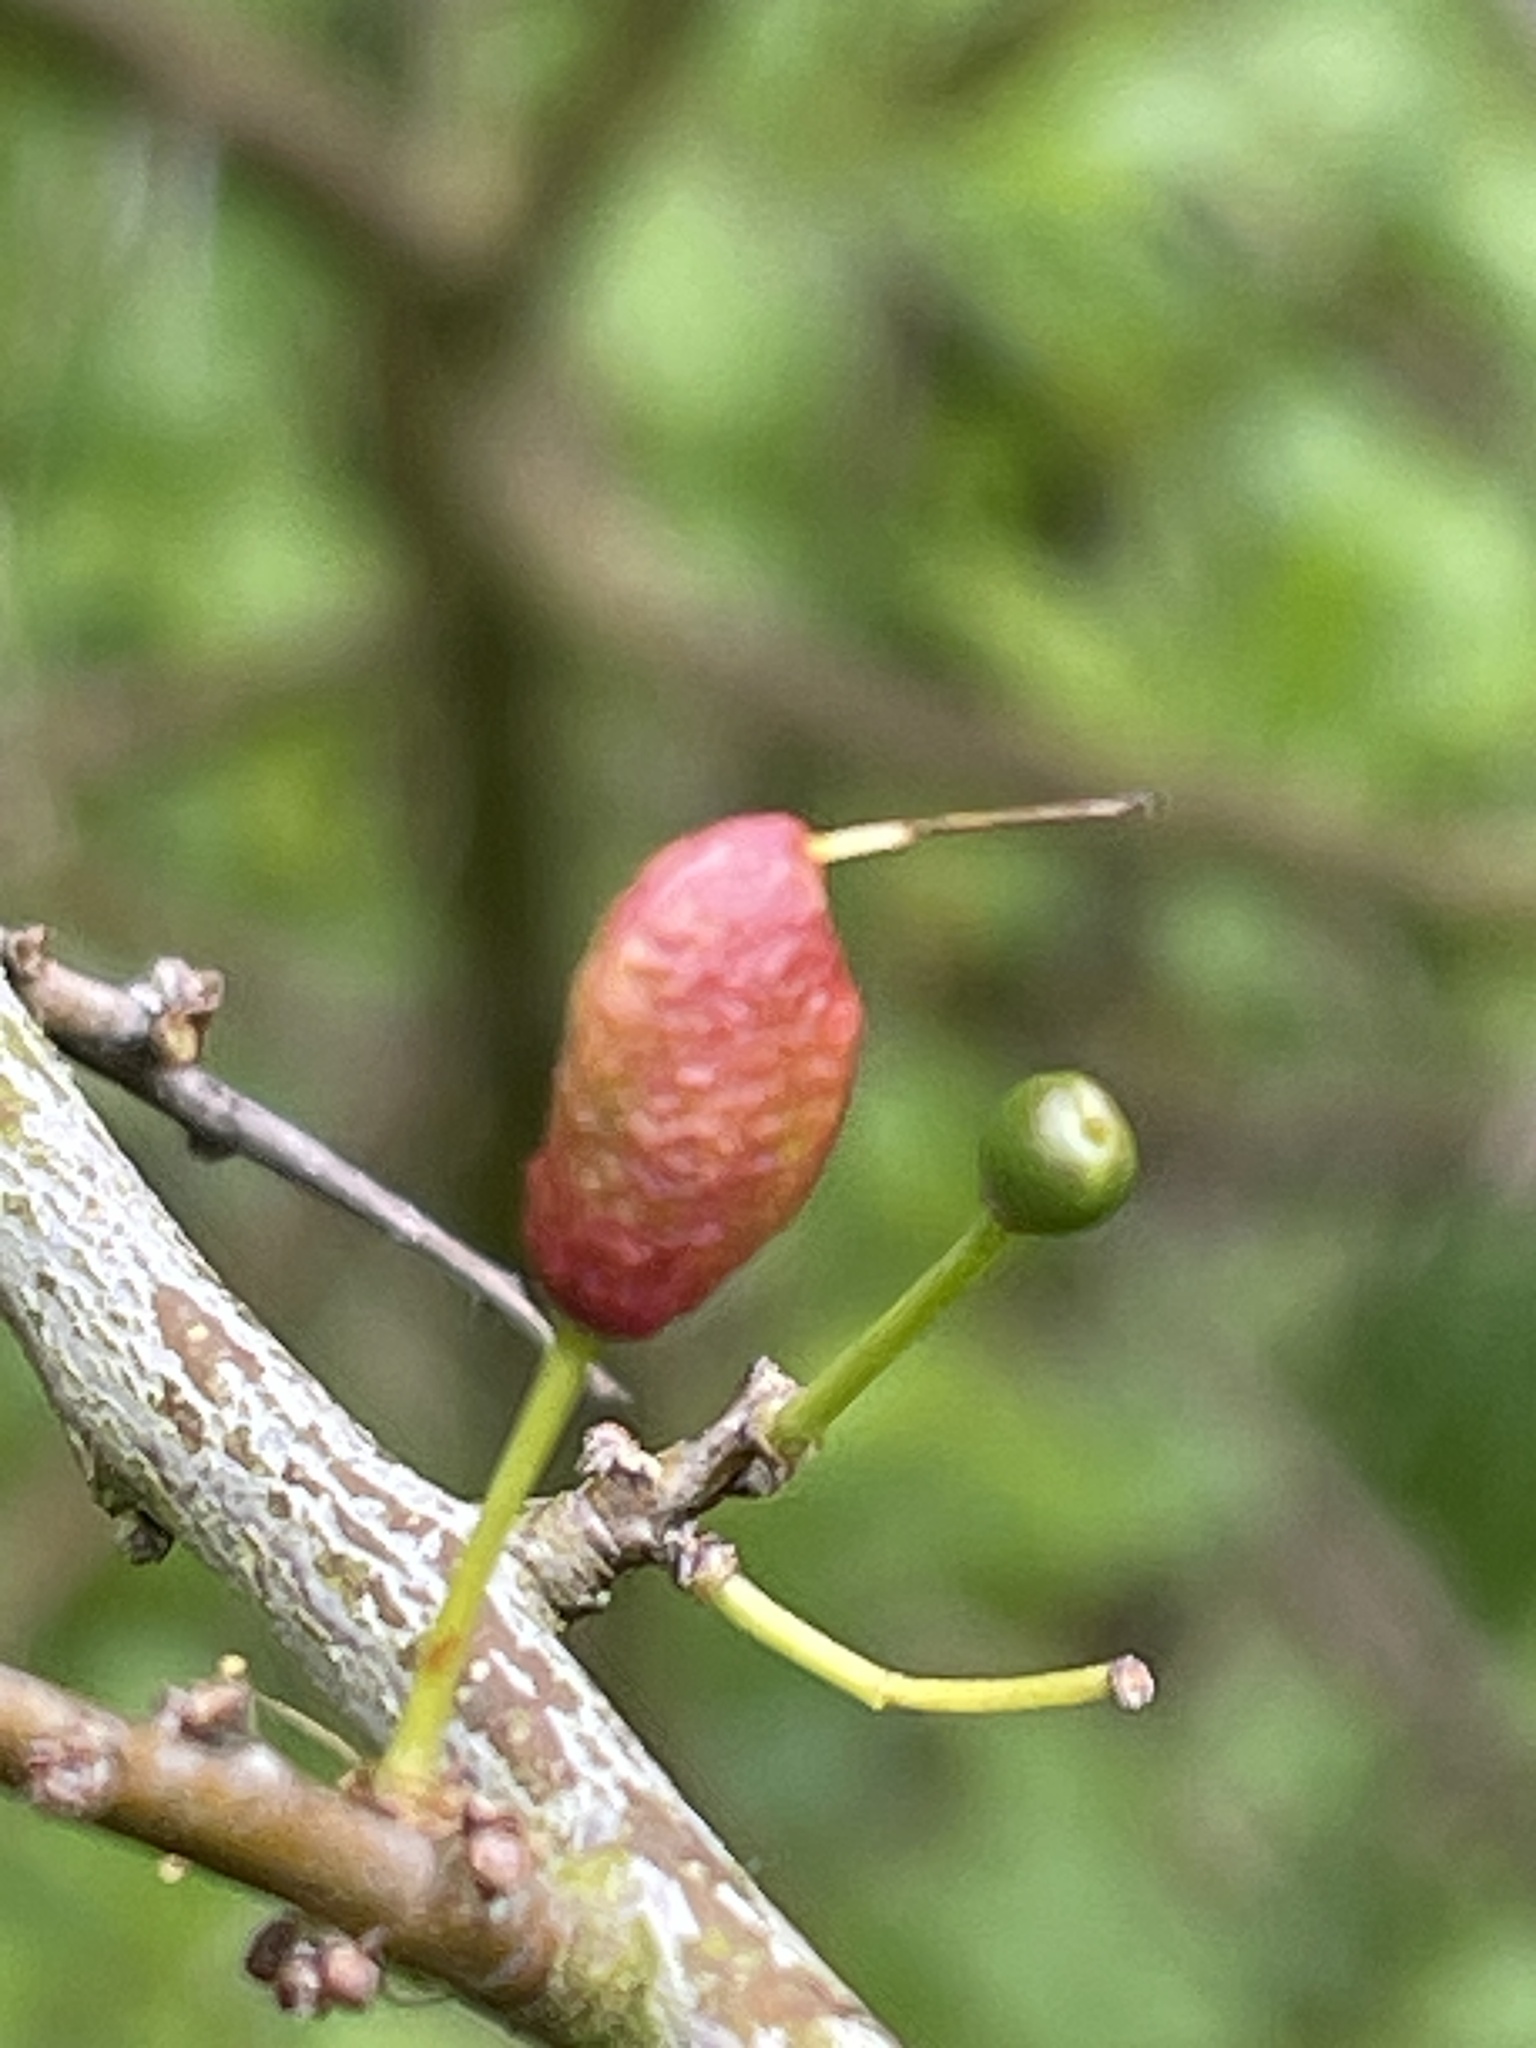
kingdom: Fungi
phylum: Ascomycota
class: Taphrinomycetes
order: Taphrinales
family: Taphrinaceae
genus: Taphrina
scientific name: Taphrina pruni
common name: Pocket plum
